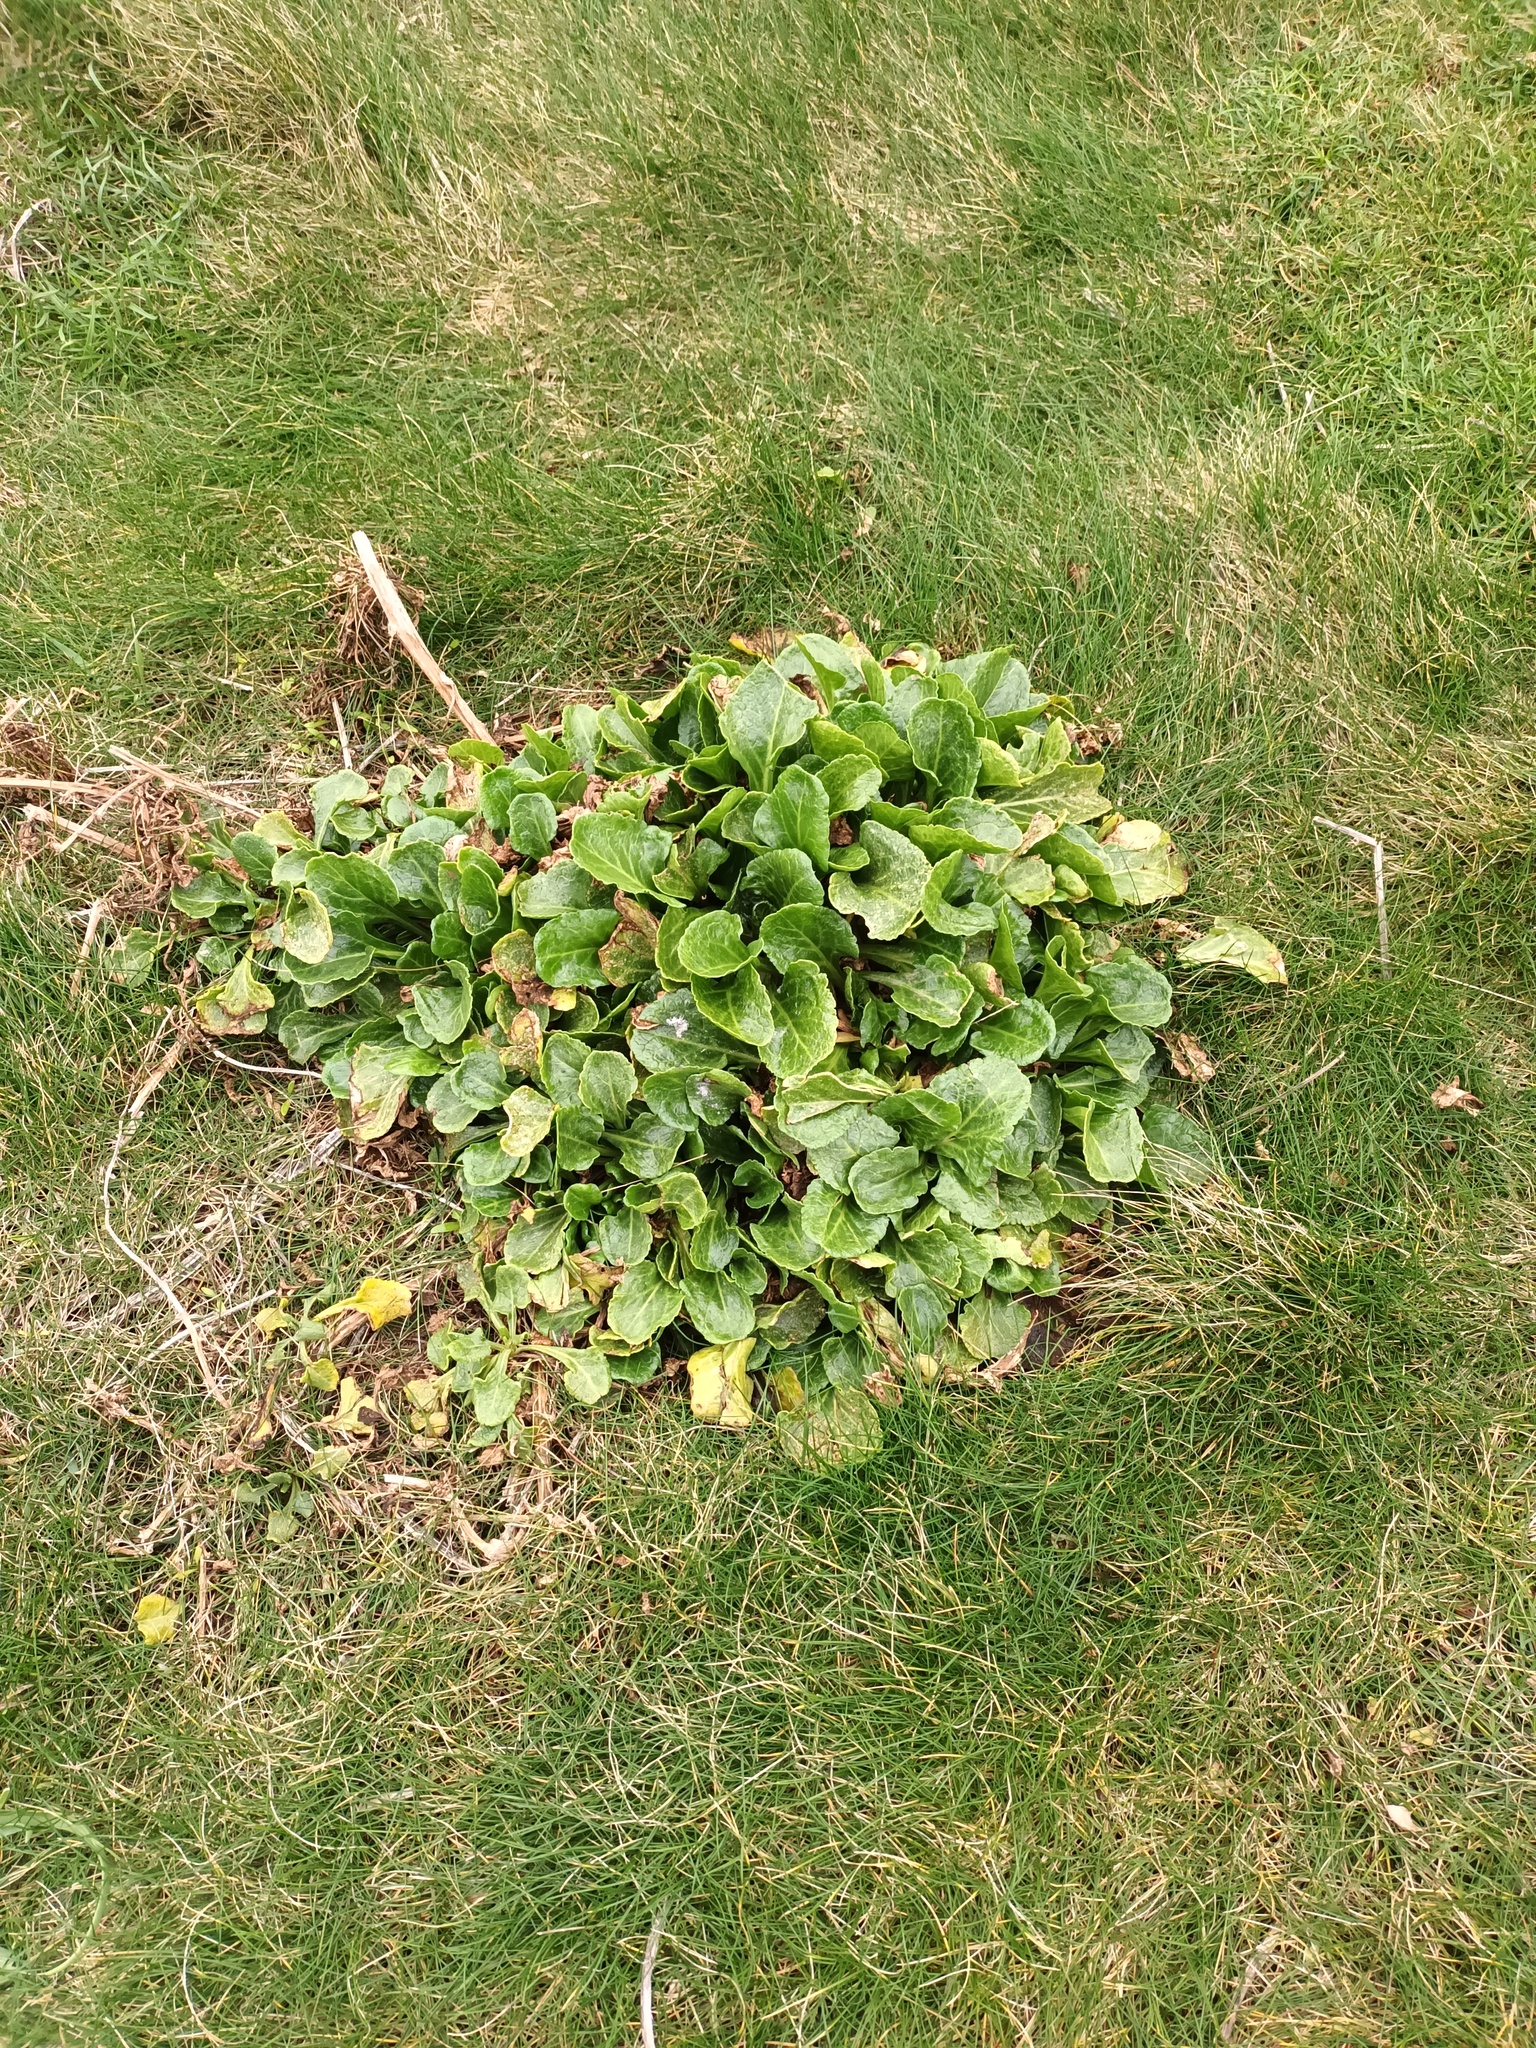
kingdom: Plantae
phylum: Tracheophyta
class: Magnoliopsida
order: Caryophyllales
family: Amaranthaceae
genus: Beta
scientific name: Beta vulgaris
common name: Beet
